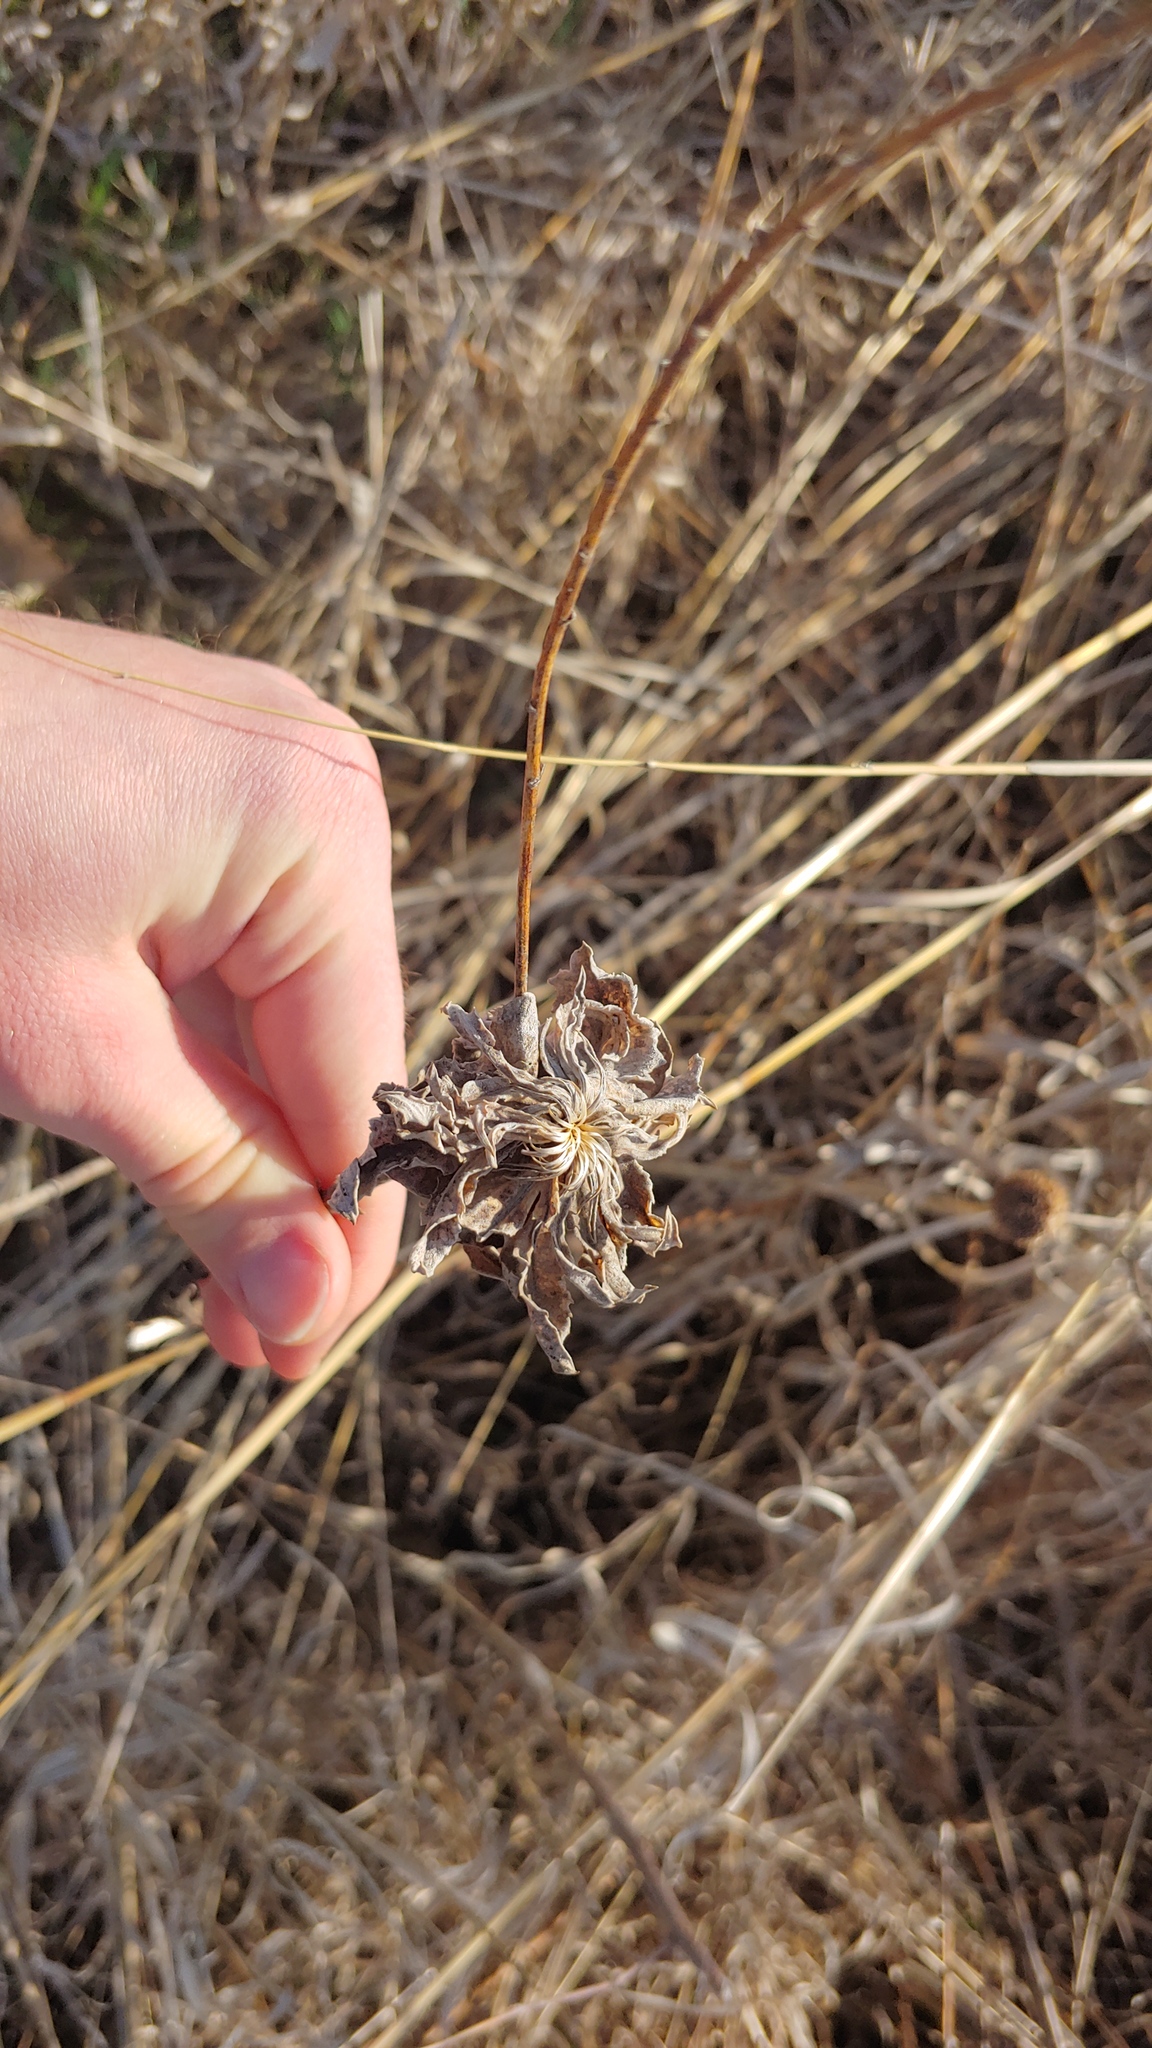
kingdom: Animalia
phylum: Arthropoda
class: Insecta
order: Diptera
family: Cecidomyiidae
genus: Rhopalomyia
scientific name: Rhopalomyia solidaginis
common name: Goldenrod bunch gall midge
